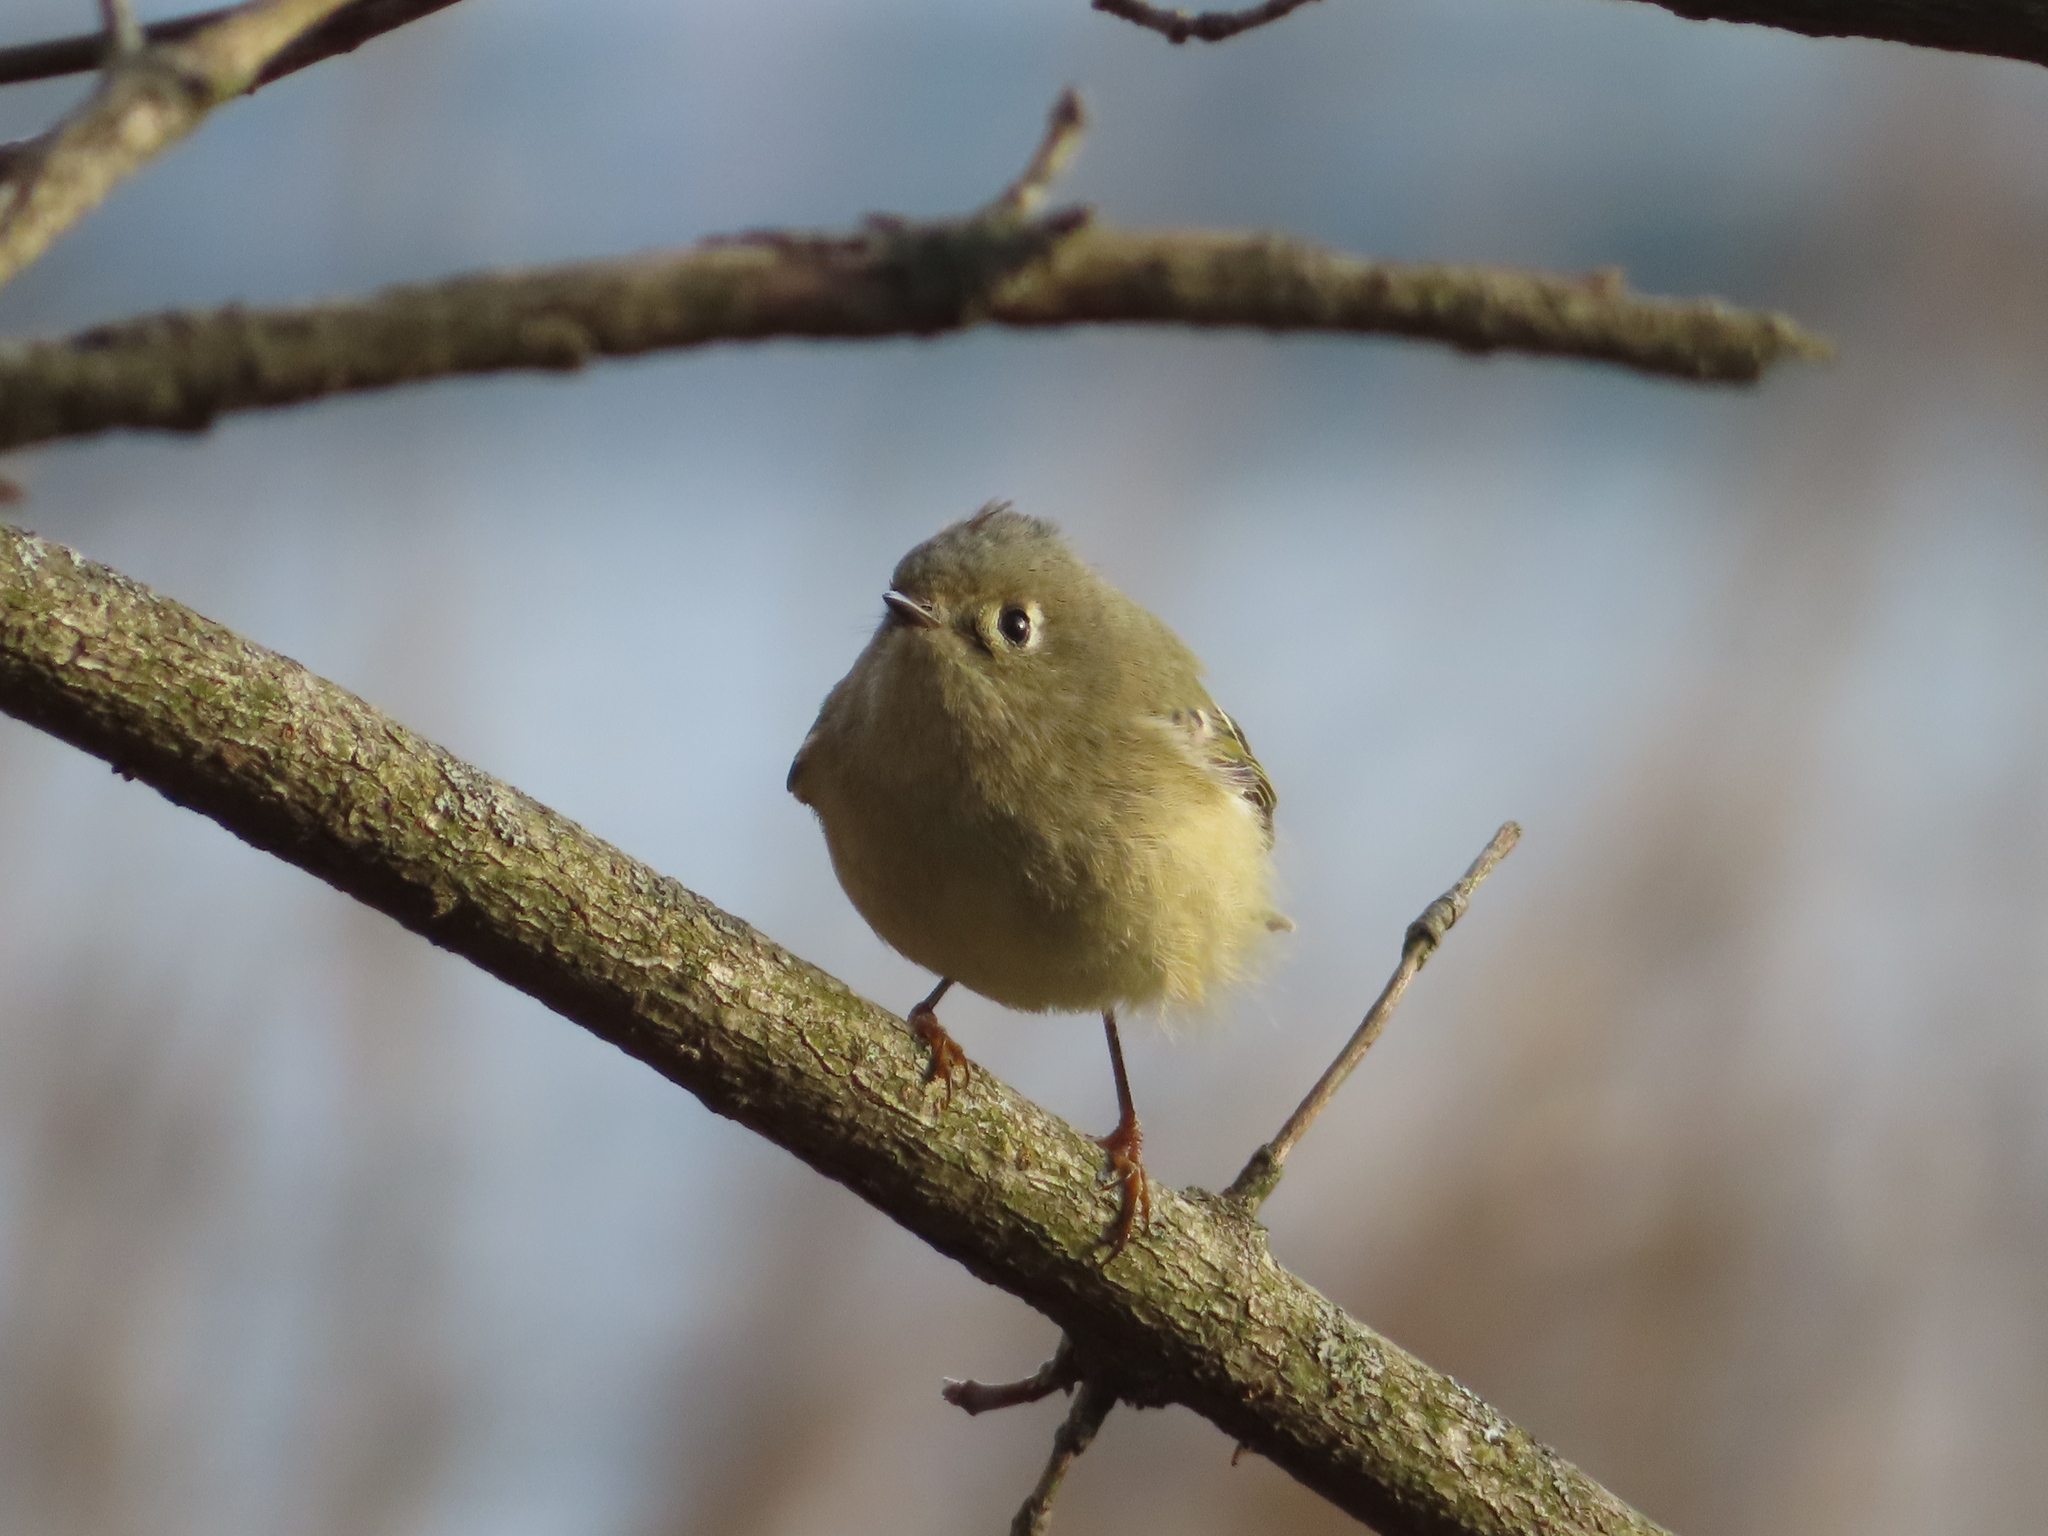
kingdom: Animalia
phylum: Chordata
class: Aves
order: Passeriformes
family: Regulidae
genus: Regulus
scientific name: Regulus calendula
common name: Ruby-crowned kinglet
